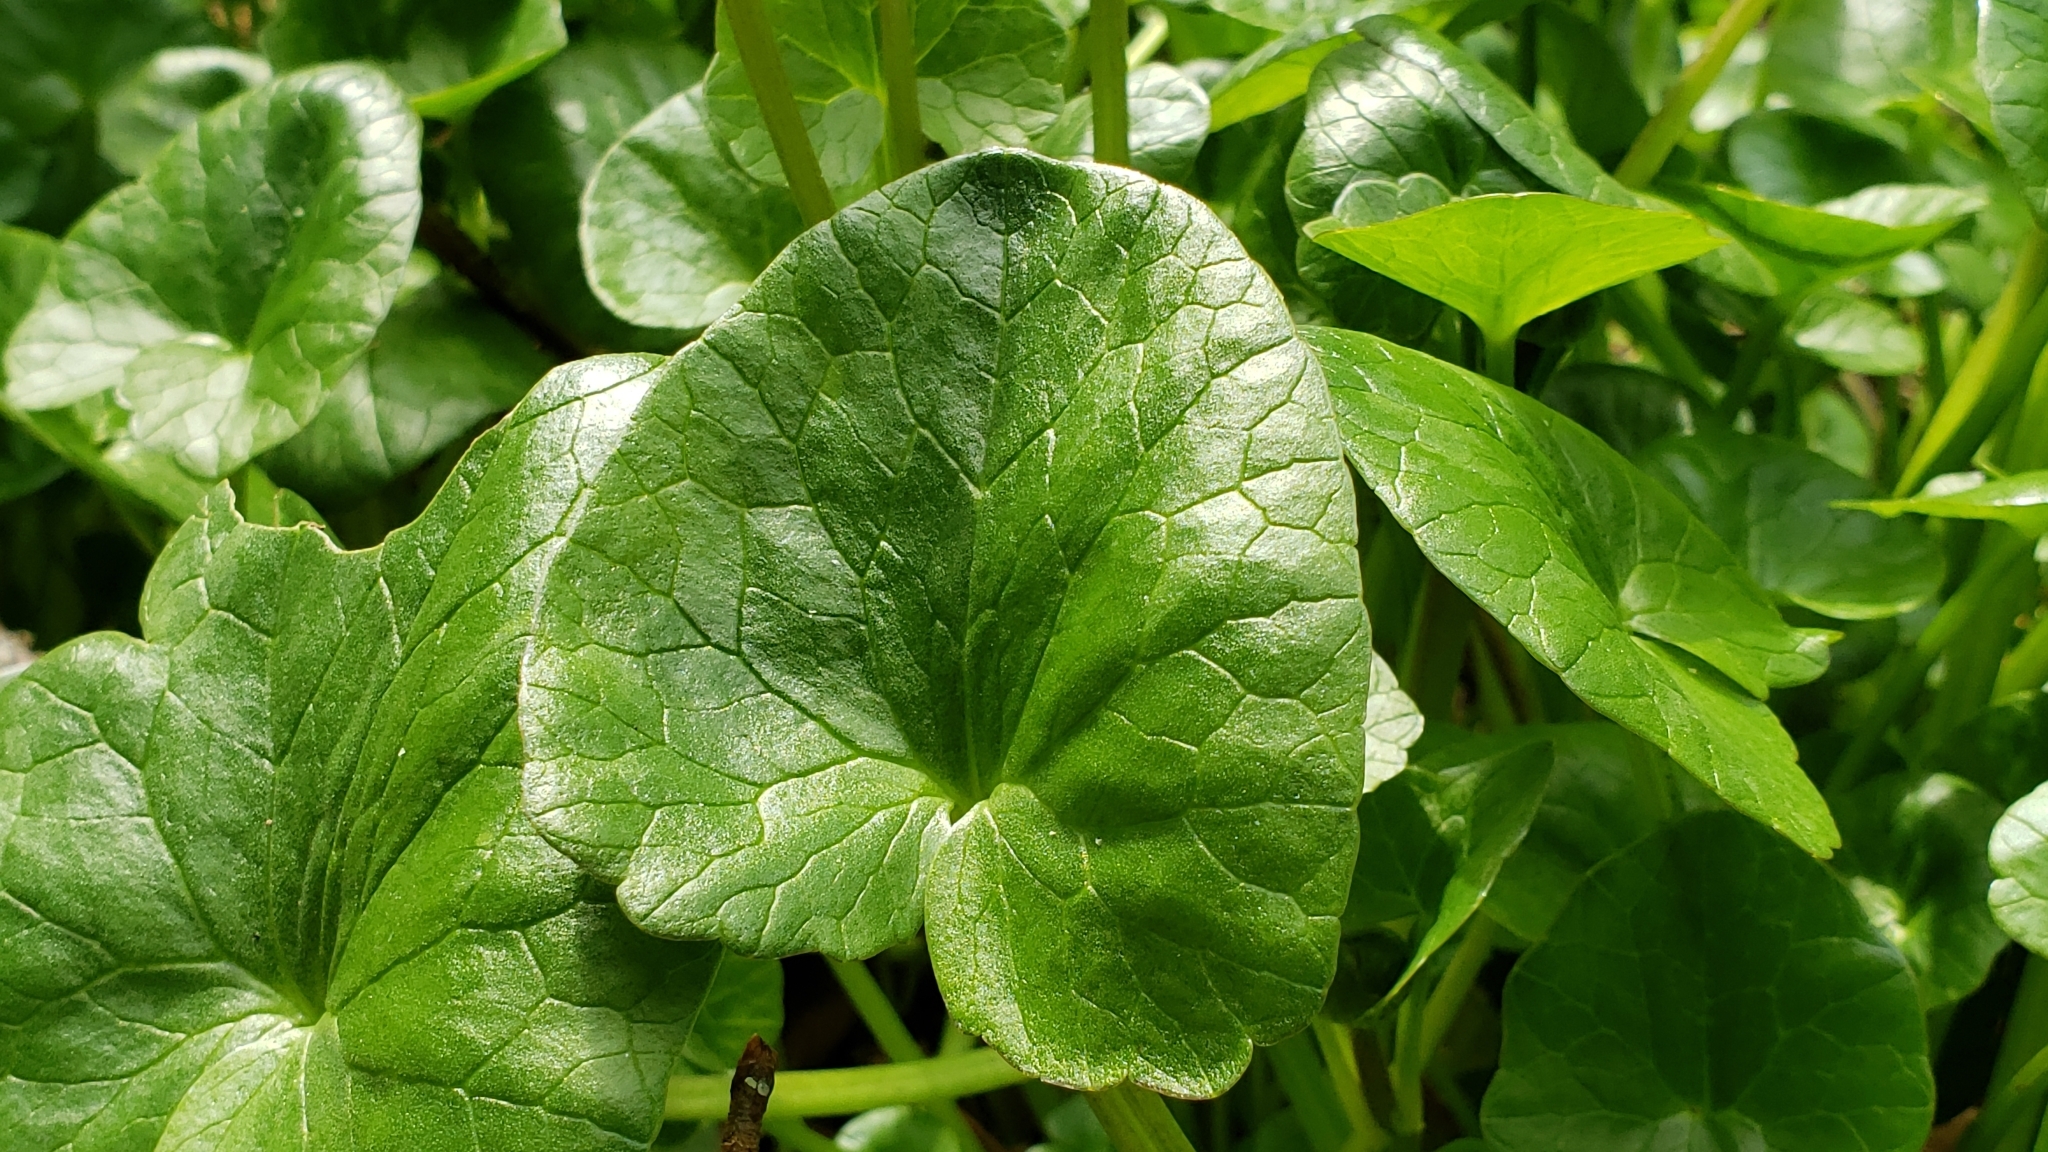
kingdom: Plantae
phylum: Tracheophyta
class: Magnoliopsida
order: Ranunculales
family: Ranunculaceae
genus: Ficaria
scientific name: Ficaria verna
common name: Lesser celandine
